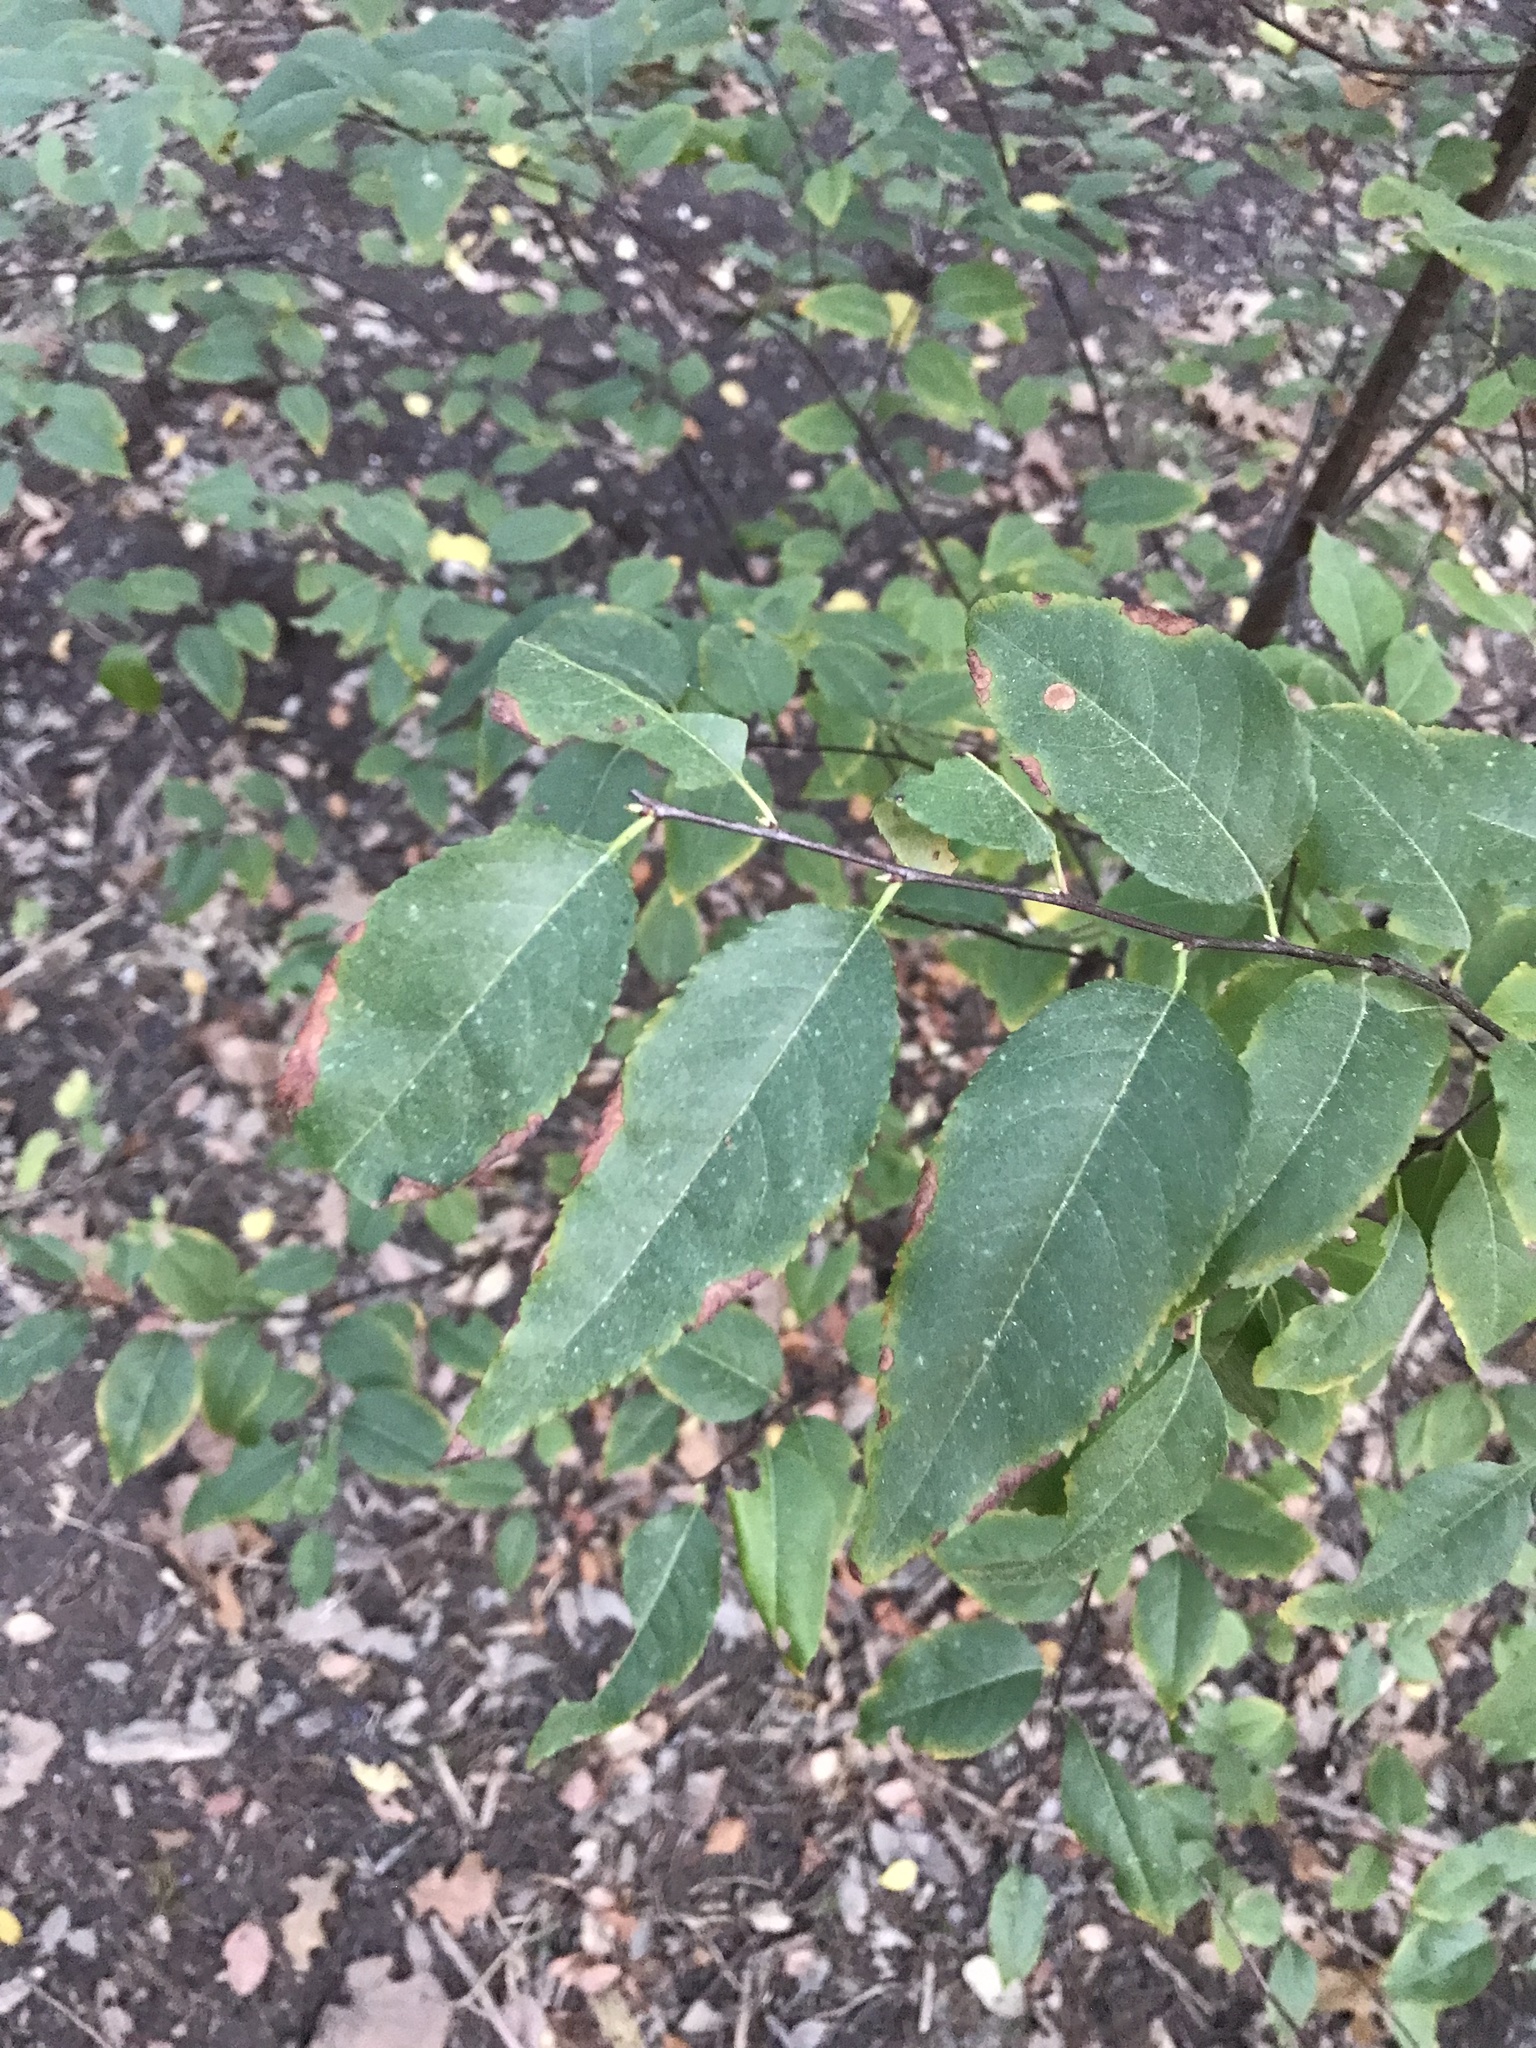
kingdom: Plantae
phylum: Tracheophyta
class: Magnoliopsida
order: Rosales
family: Rosaceae
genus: Prunus
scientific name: Prunus serotina
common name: Black cherry
